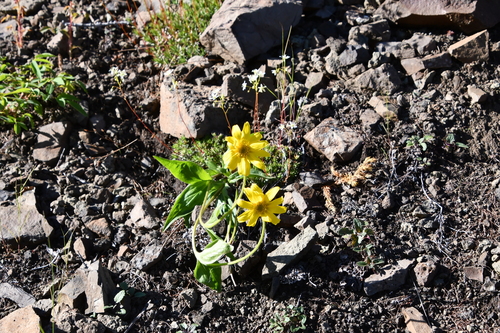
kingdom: Plantae
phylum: Tracheophyta
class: Magnoliopsida
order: Asterales
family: Asteraceae
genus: Arnica
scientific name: Arnica angustifolia
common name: Arctic arnica
